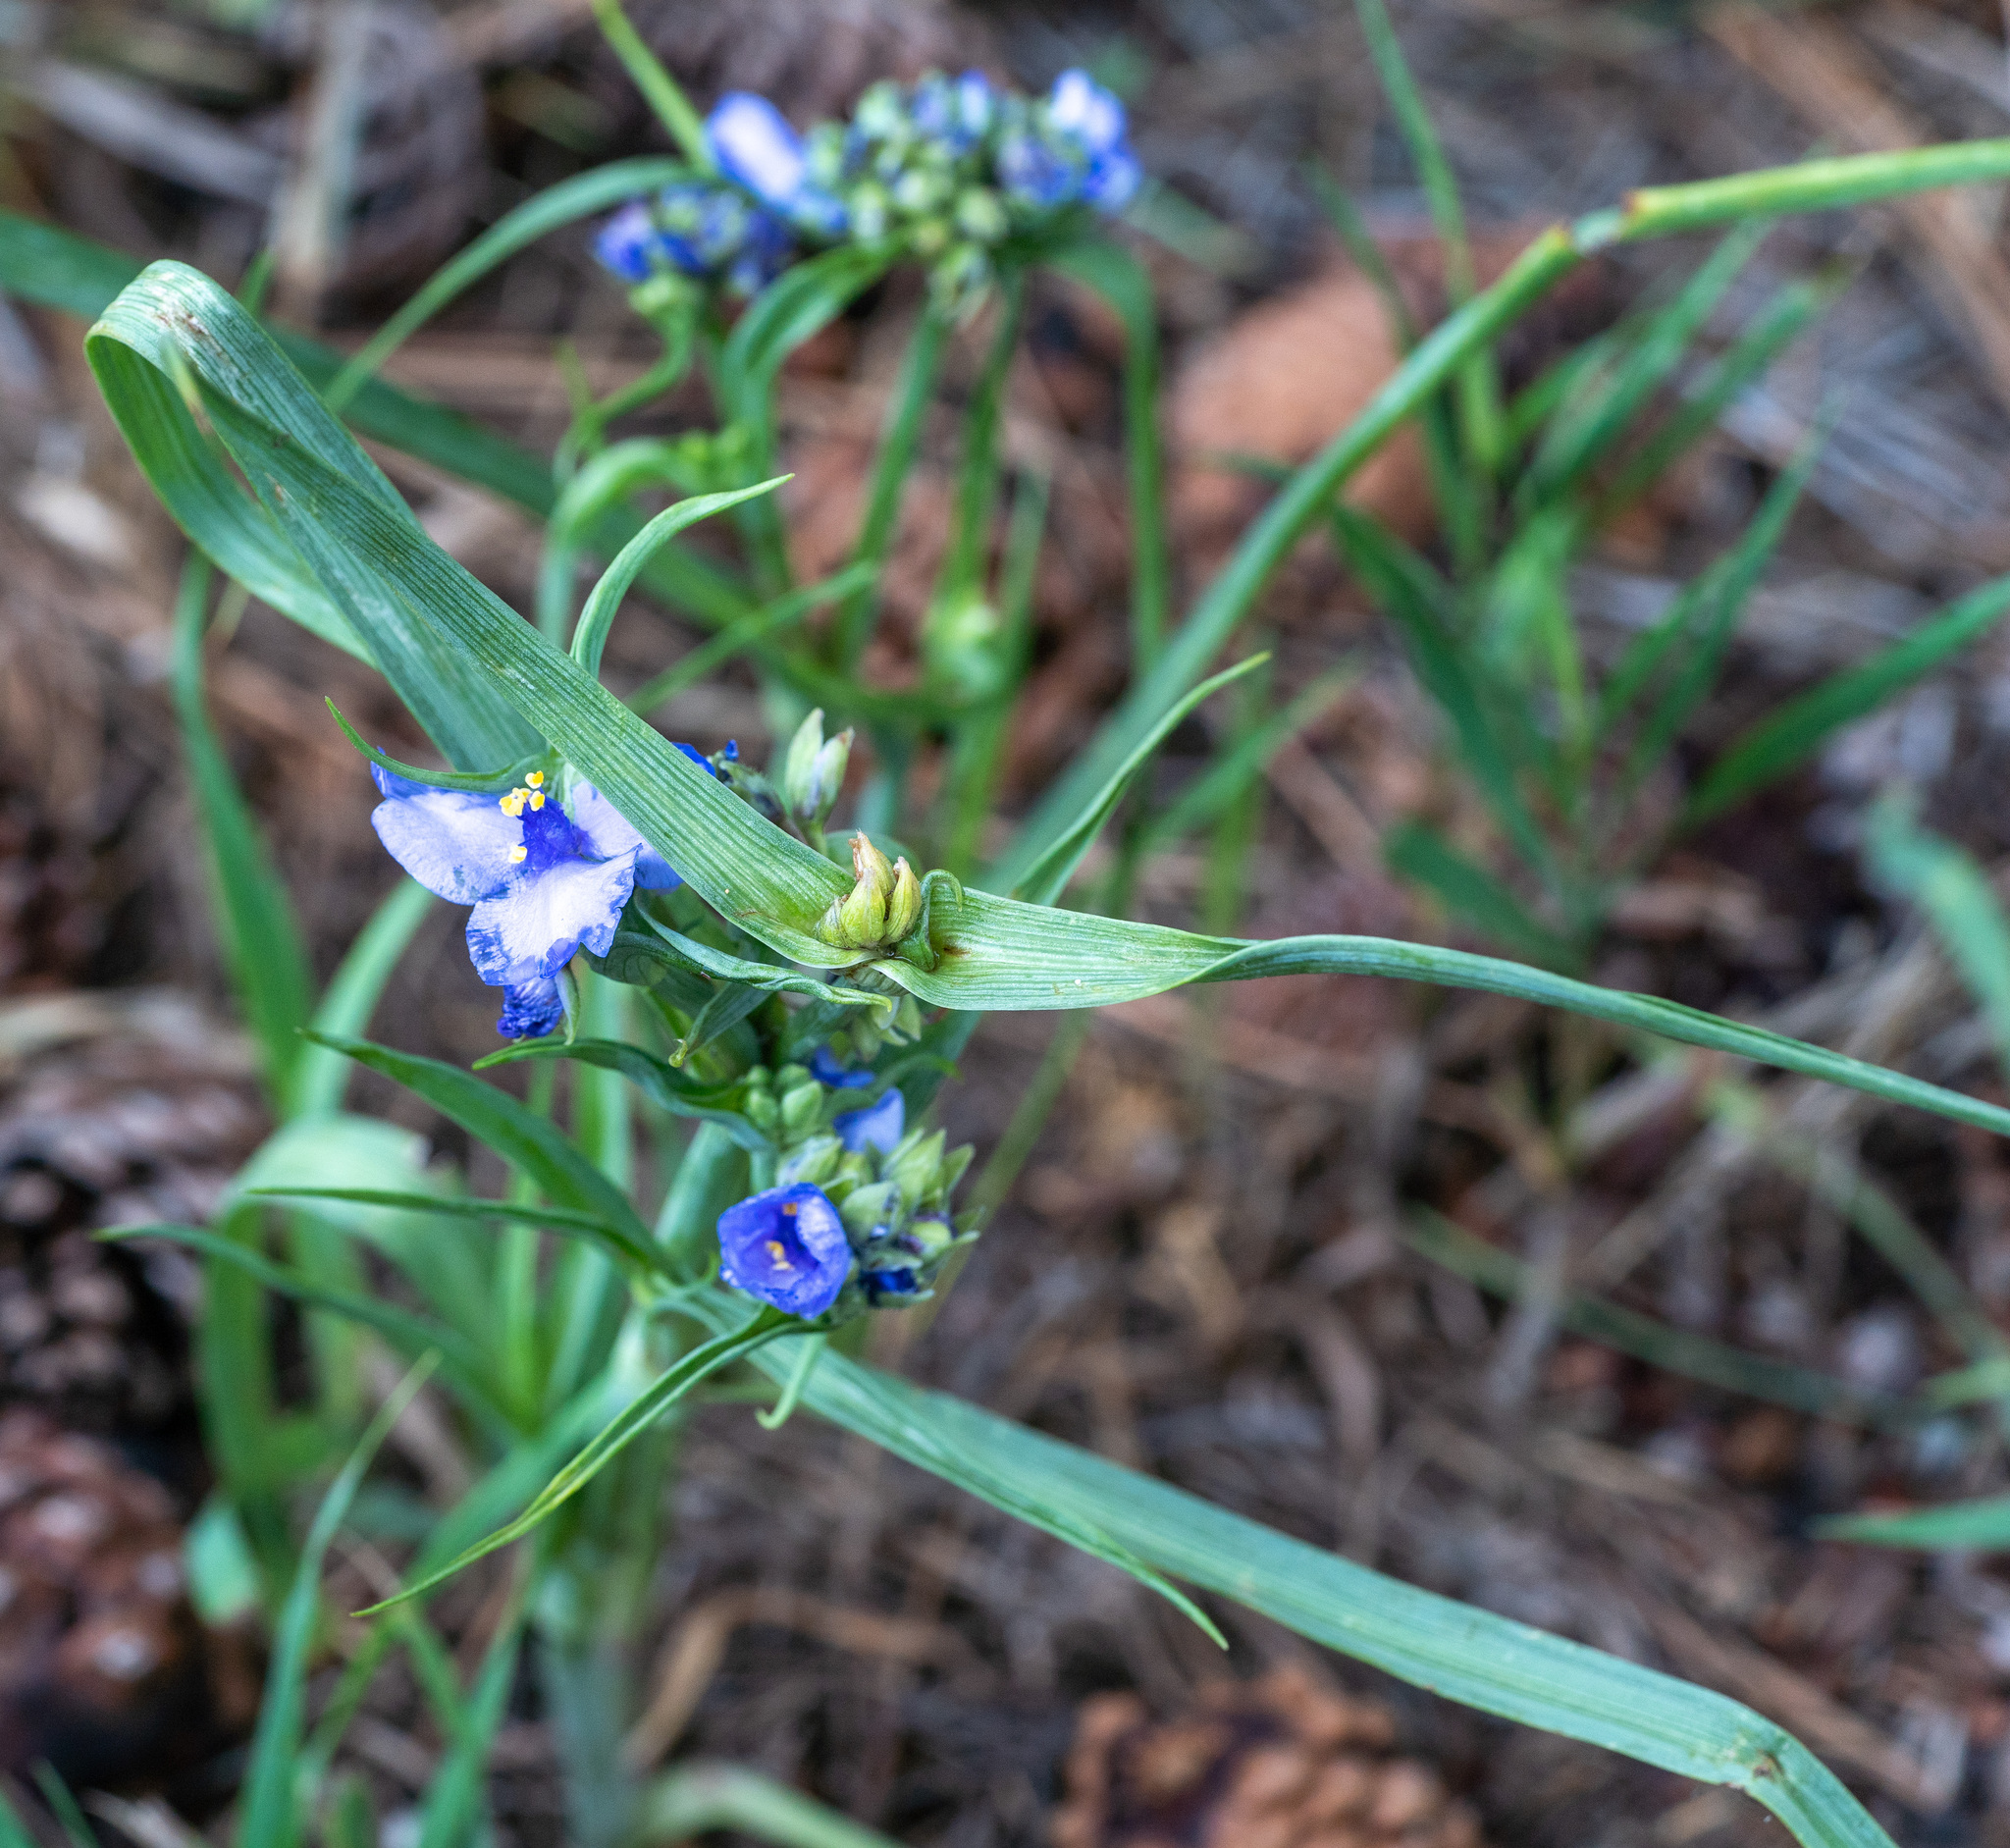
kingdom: Plantae
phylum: Tracheophyta
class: Liliopsida
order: Commelinales
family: Commelinaceae
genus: Tradescantia
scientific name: Tradescantia occidentalis
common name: Prairie spiderwort
